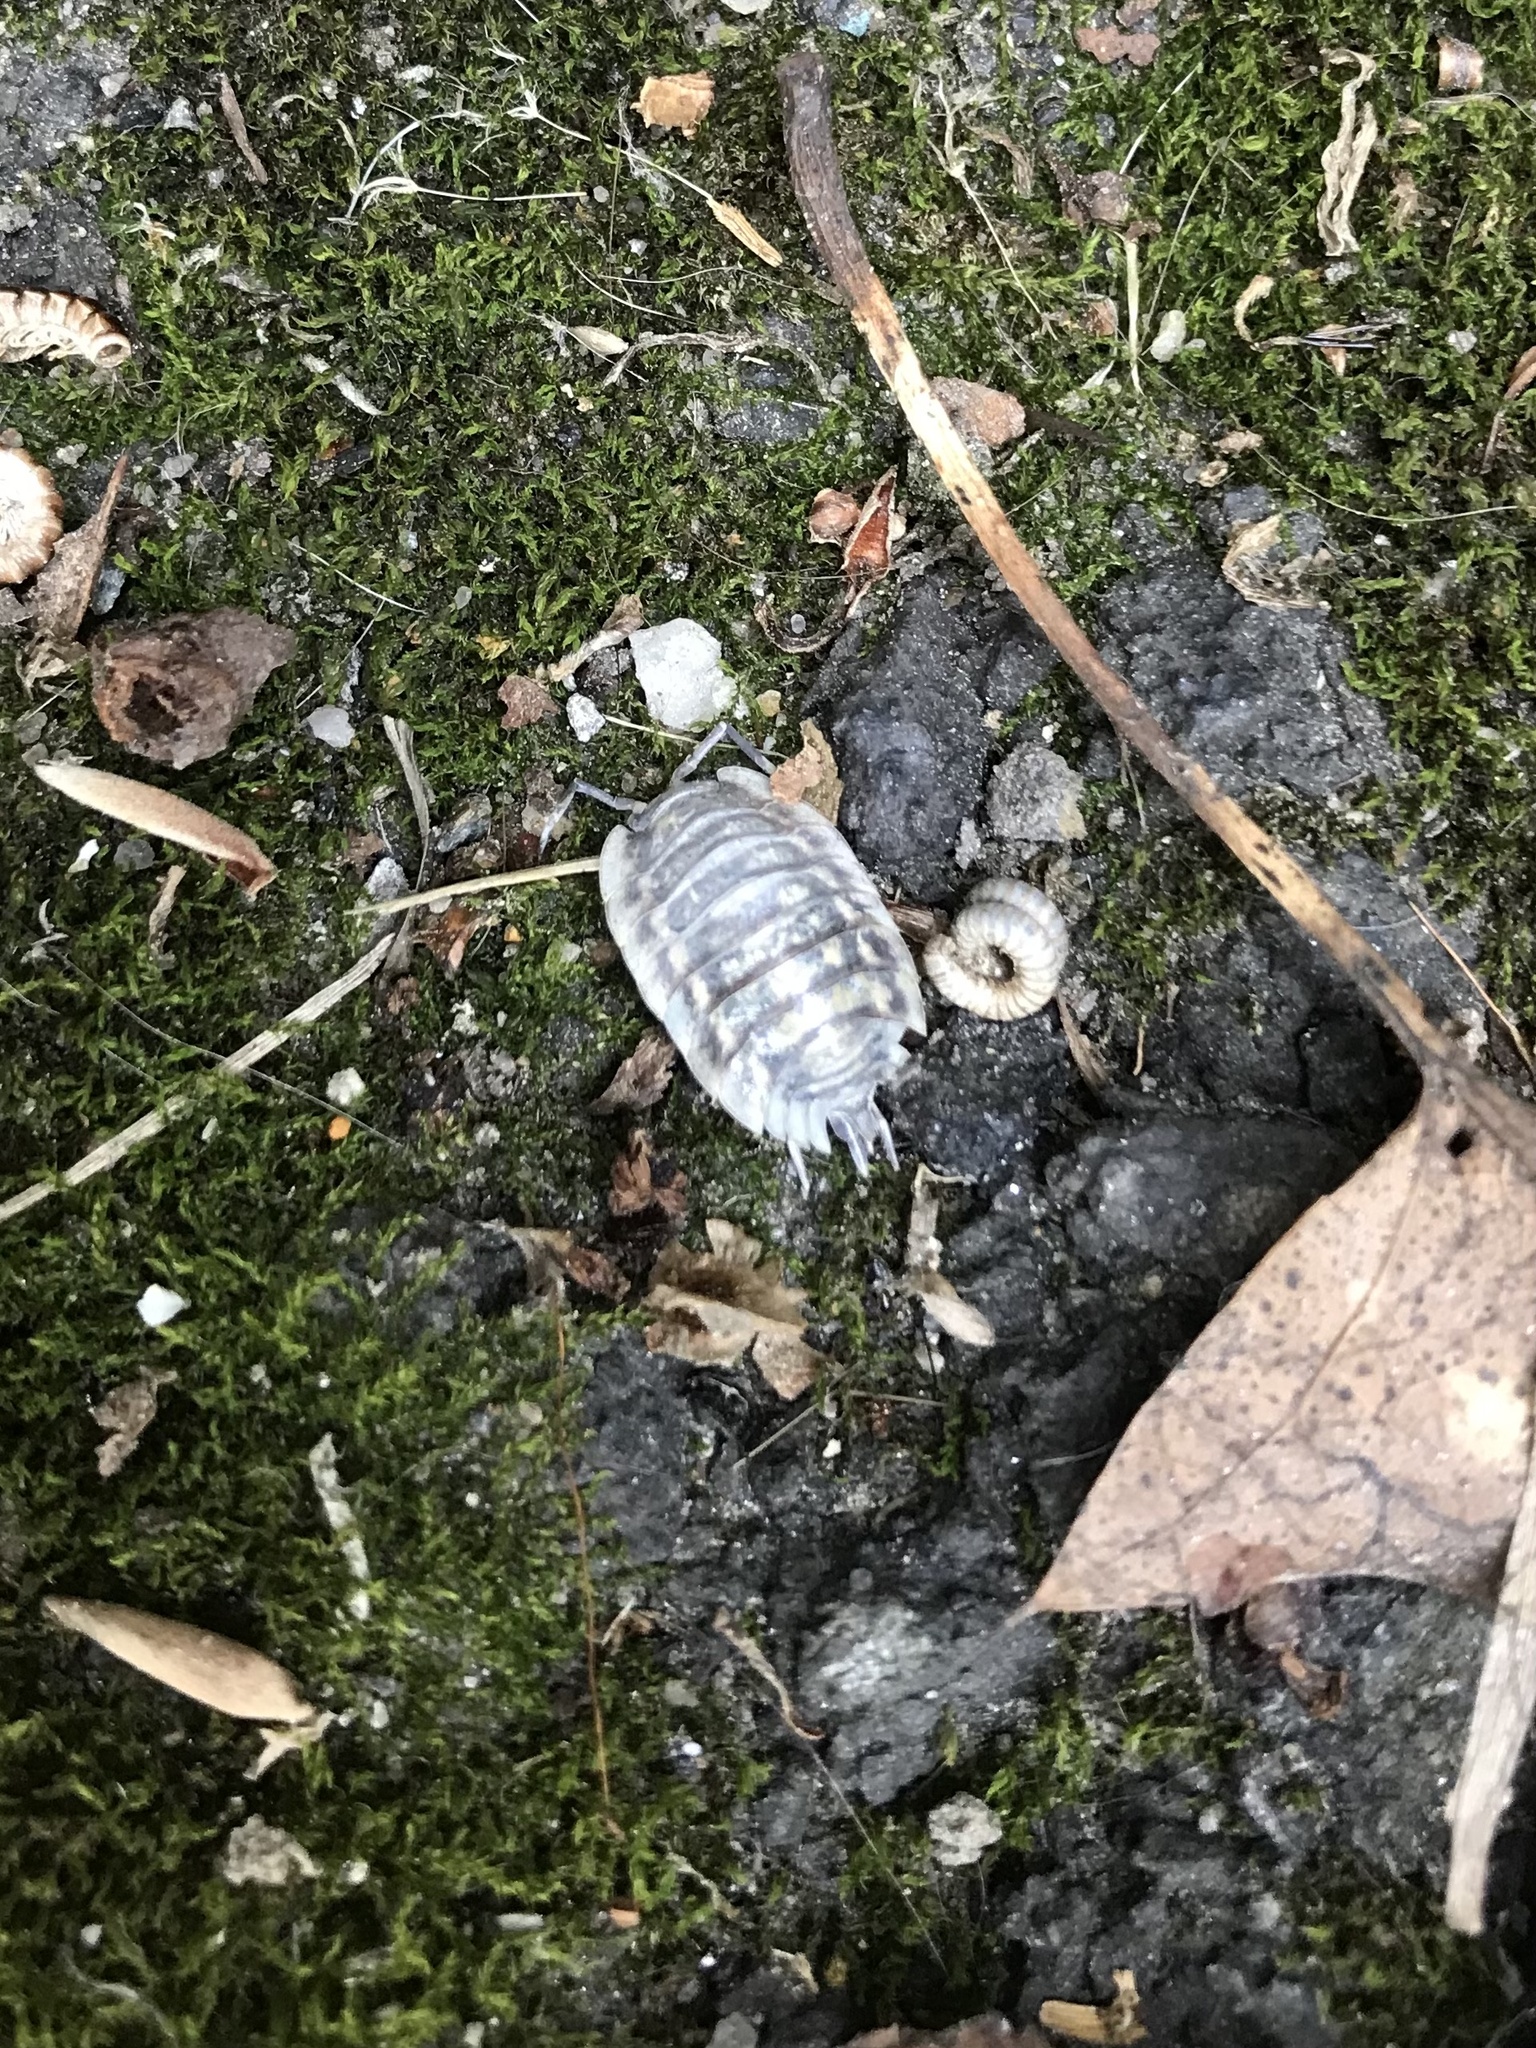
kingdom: Animalia
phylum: Arthropoda
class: Malacostraca
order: Isopoda
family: Oniscidae
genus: Oniscus
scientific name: Oniscus asellus
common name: Common shiny woodlouse
